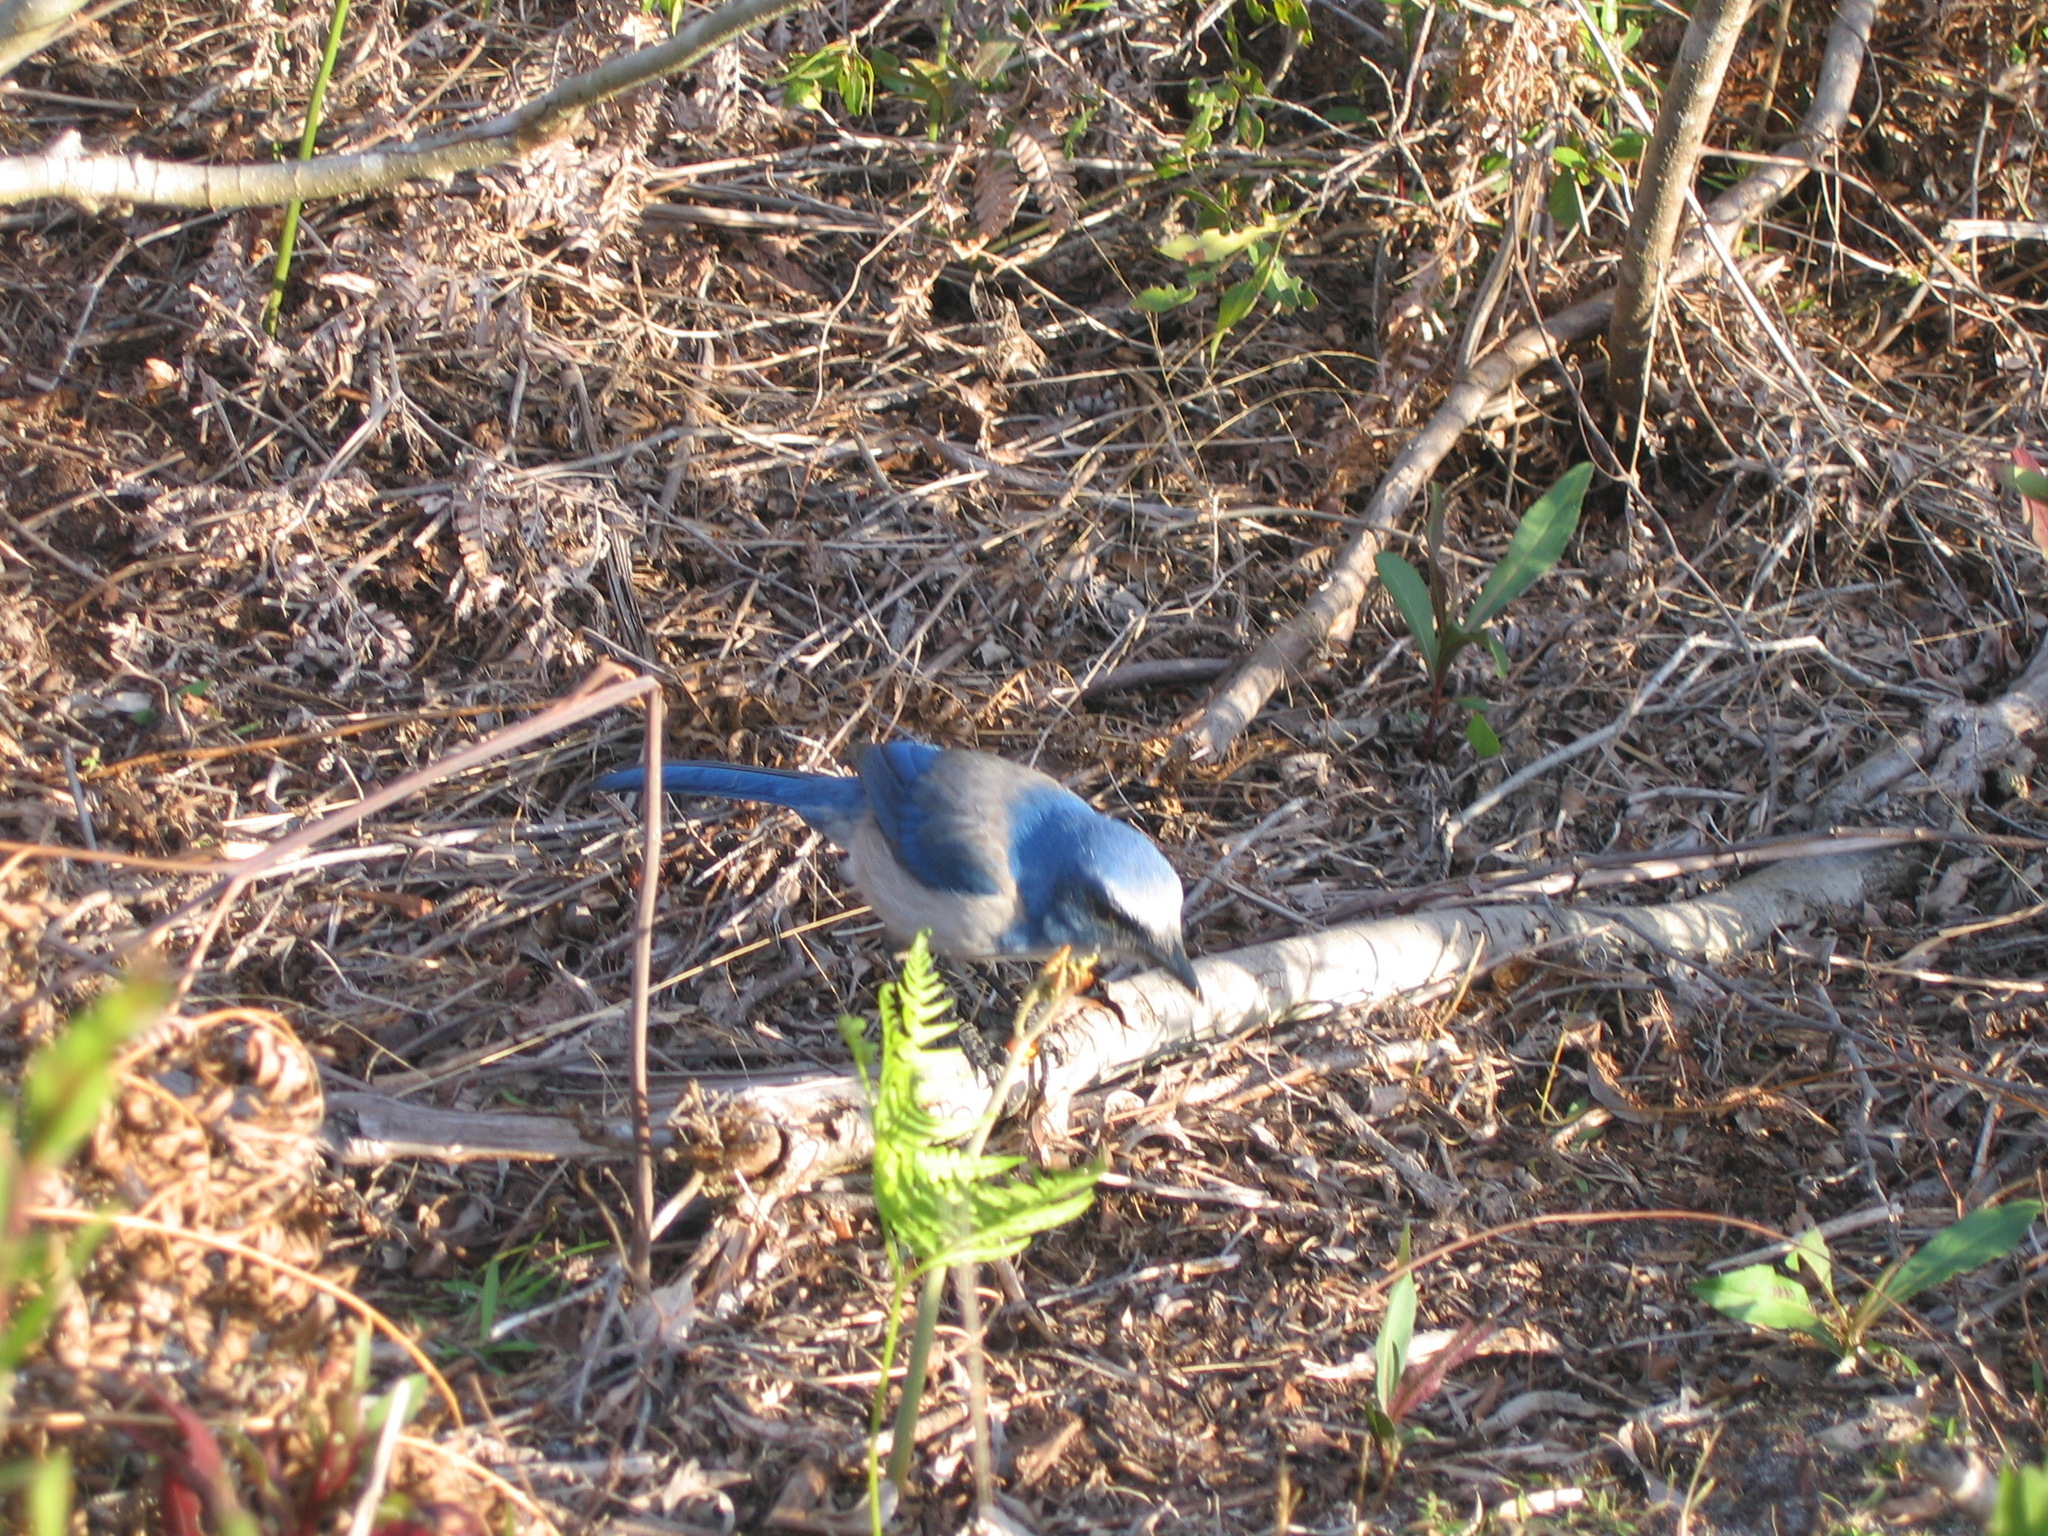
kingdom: Animalia
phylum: Chordata
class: Aves
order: Passeriformes
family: Corvidae
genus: Aphelocoma
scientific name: Aphelocoma coerulescens
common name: Florida scrub jay
